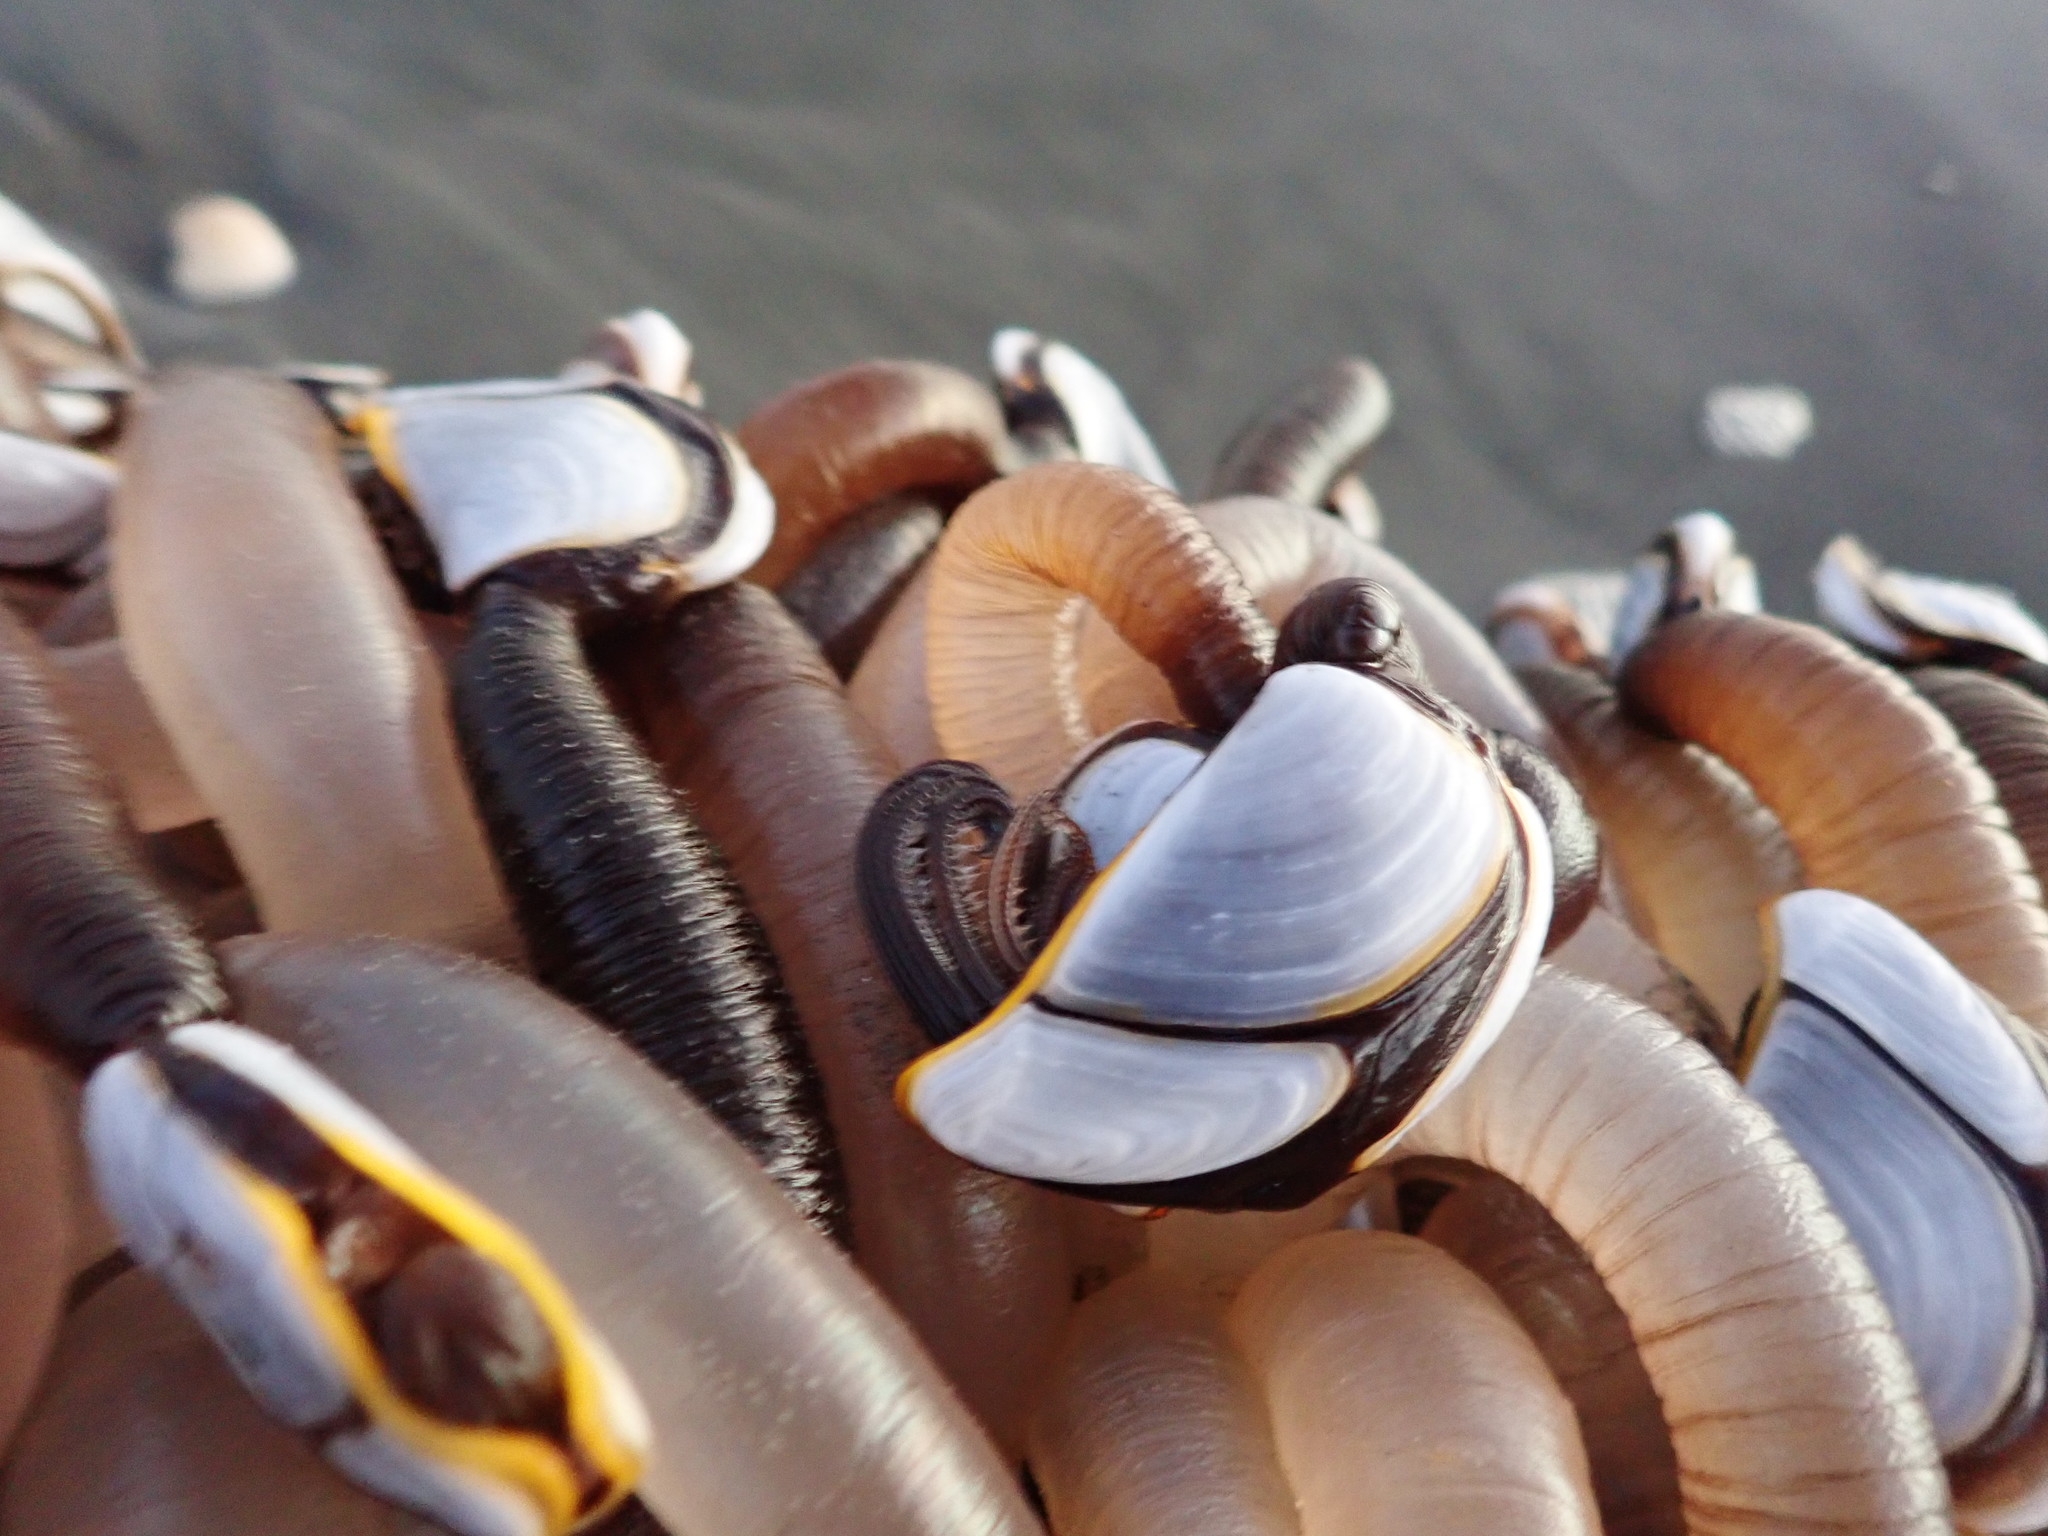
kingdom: Animalia
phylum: Arthropoda
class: Maxillopoda
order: Pedunculata
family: Lepadidae
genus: Lepas
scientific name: Lepas testudinata
